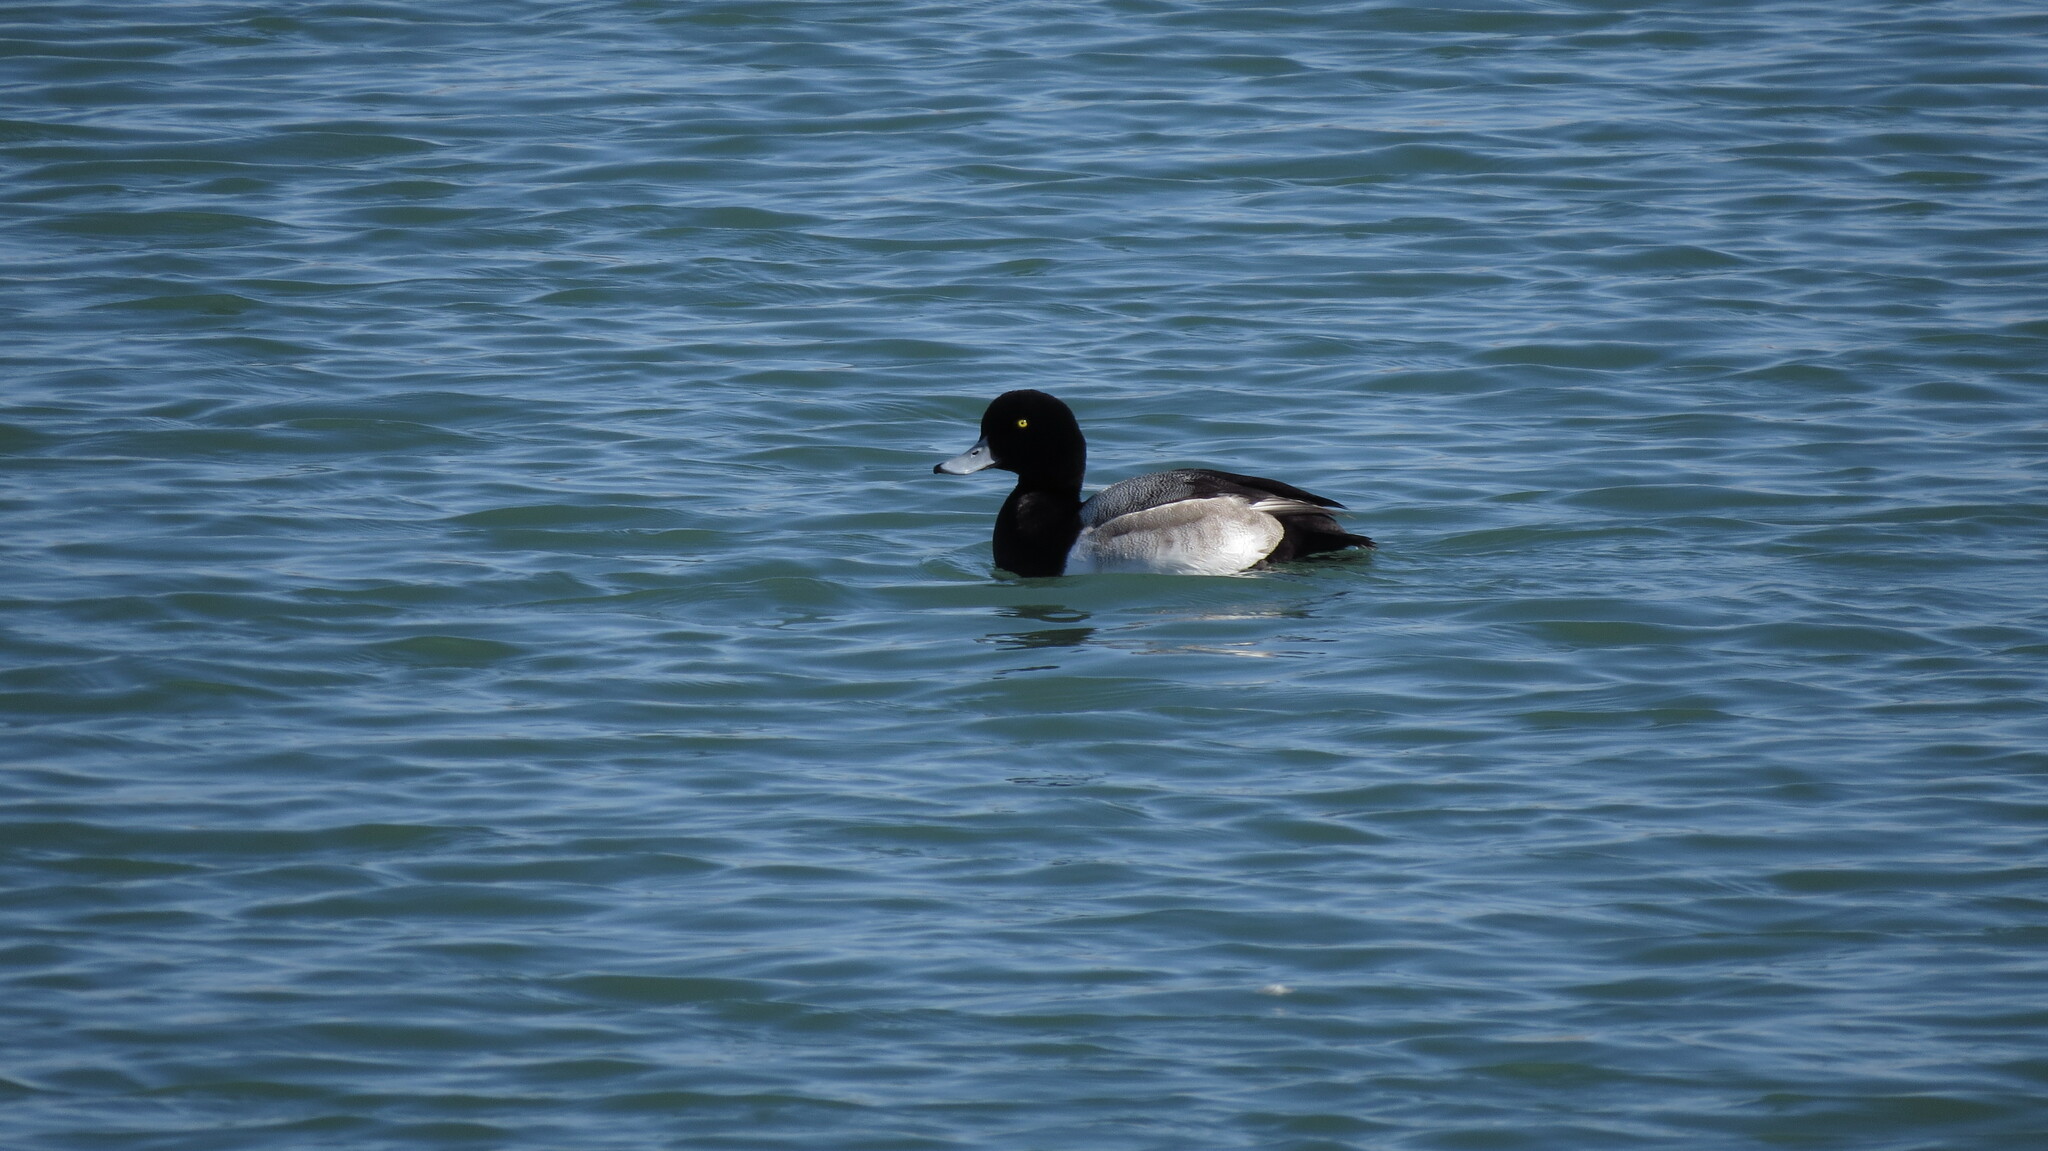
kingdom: Animalia
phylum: Chordata
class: Aves
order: Anseriformes
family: Anatidae
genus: Aythya
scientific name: Aythya marila
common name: Greater scaup
